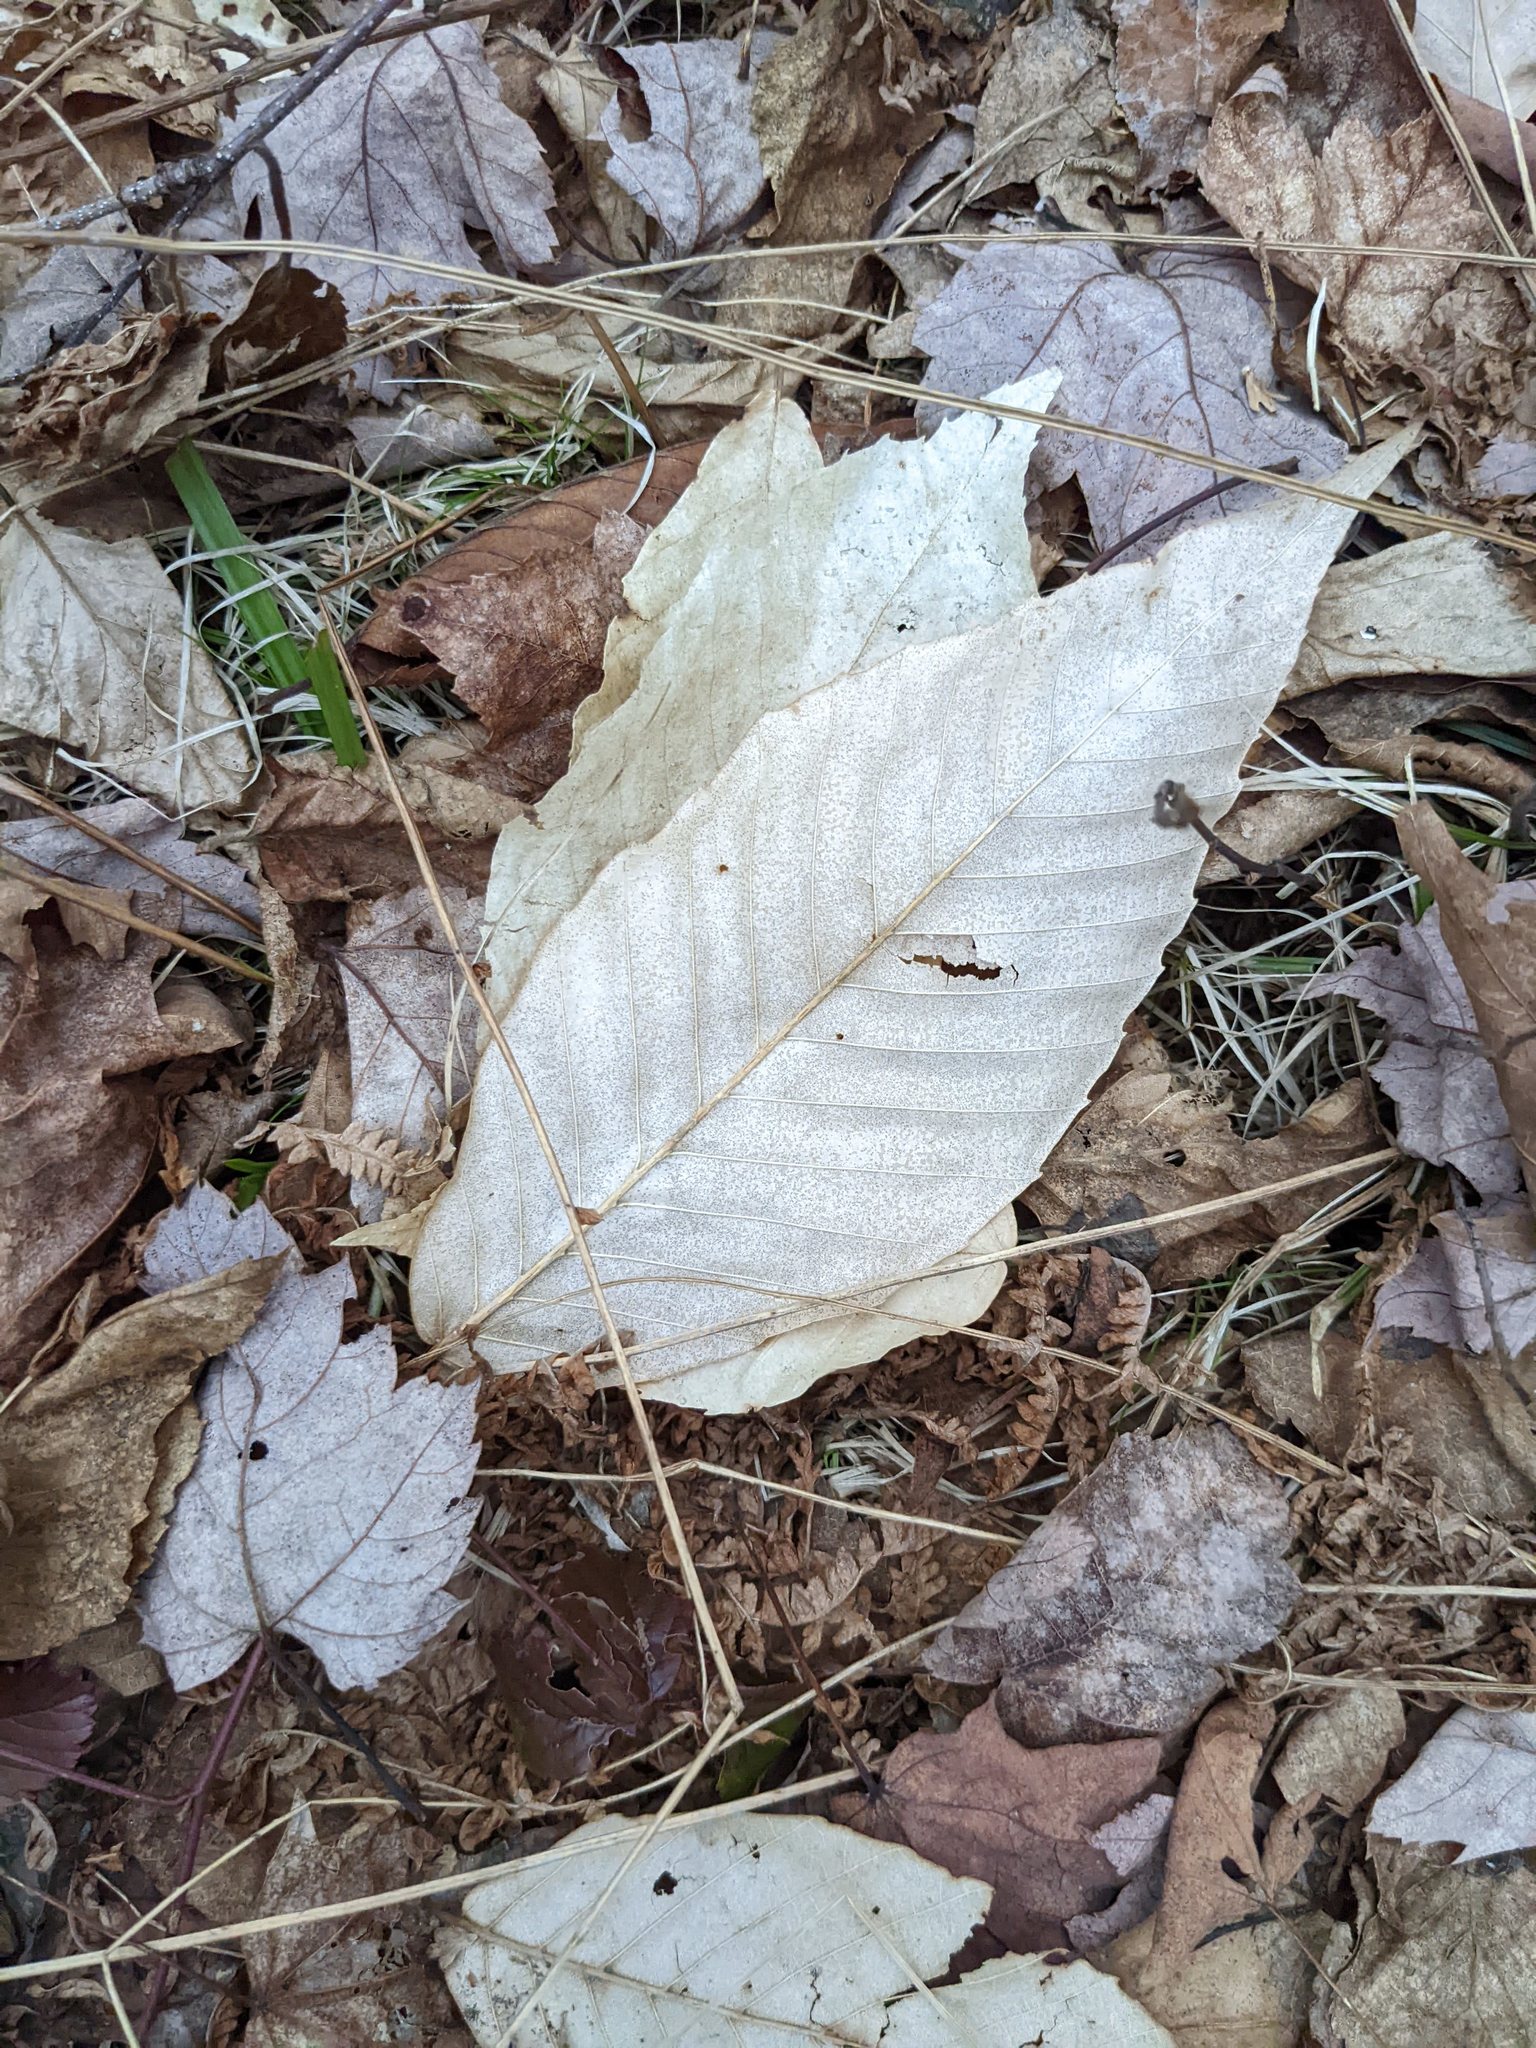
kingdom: Plantae
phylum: Tracheophyta
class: Magnoliopsida
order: Fagales
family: Fagaceae
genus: Fagus
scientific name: Fagus grandifolia
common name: American beech
